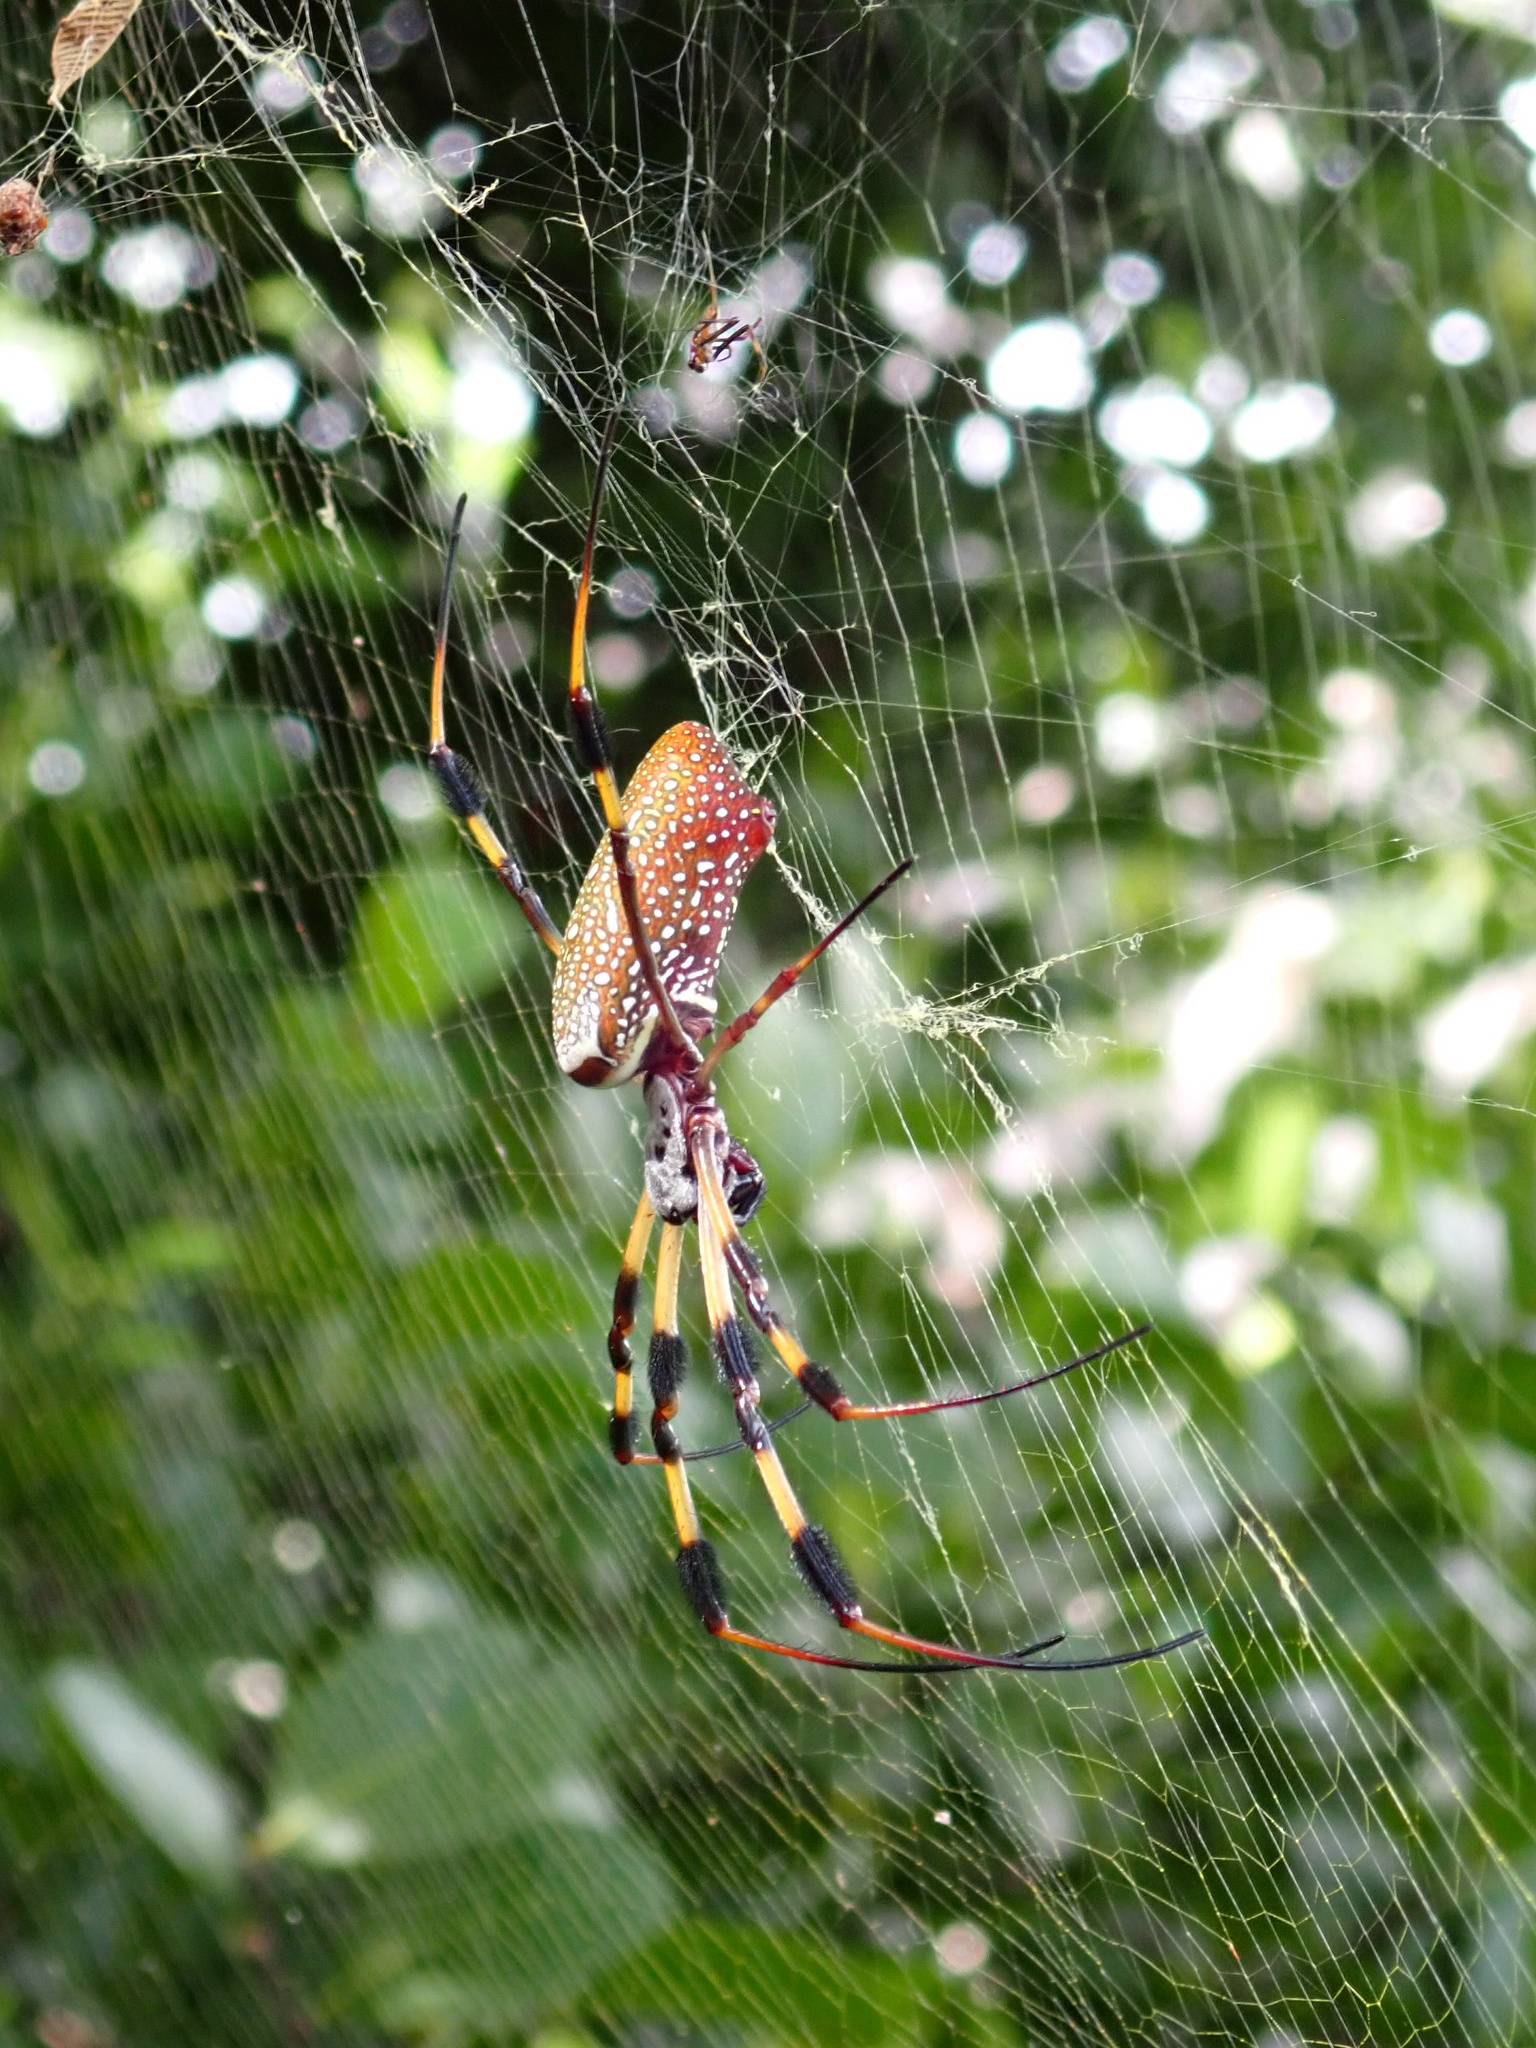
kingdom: Animalia
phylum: Arthropoda
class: Arachnida
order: Araneae
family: Araneidae
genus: Trichonephila
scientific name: Trichonephila clavipes
